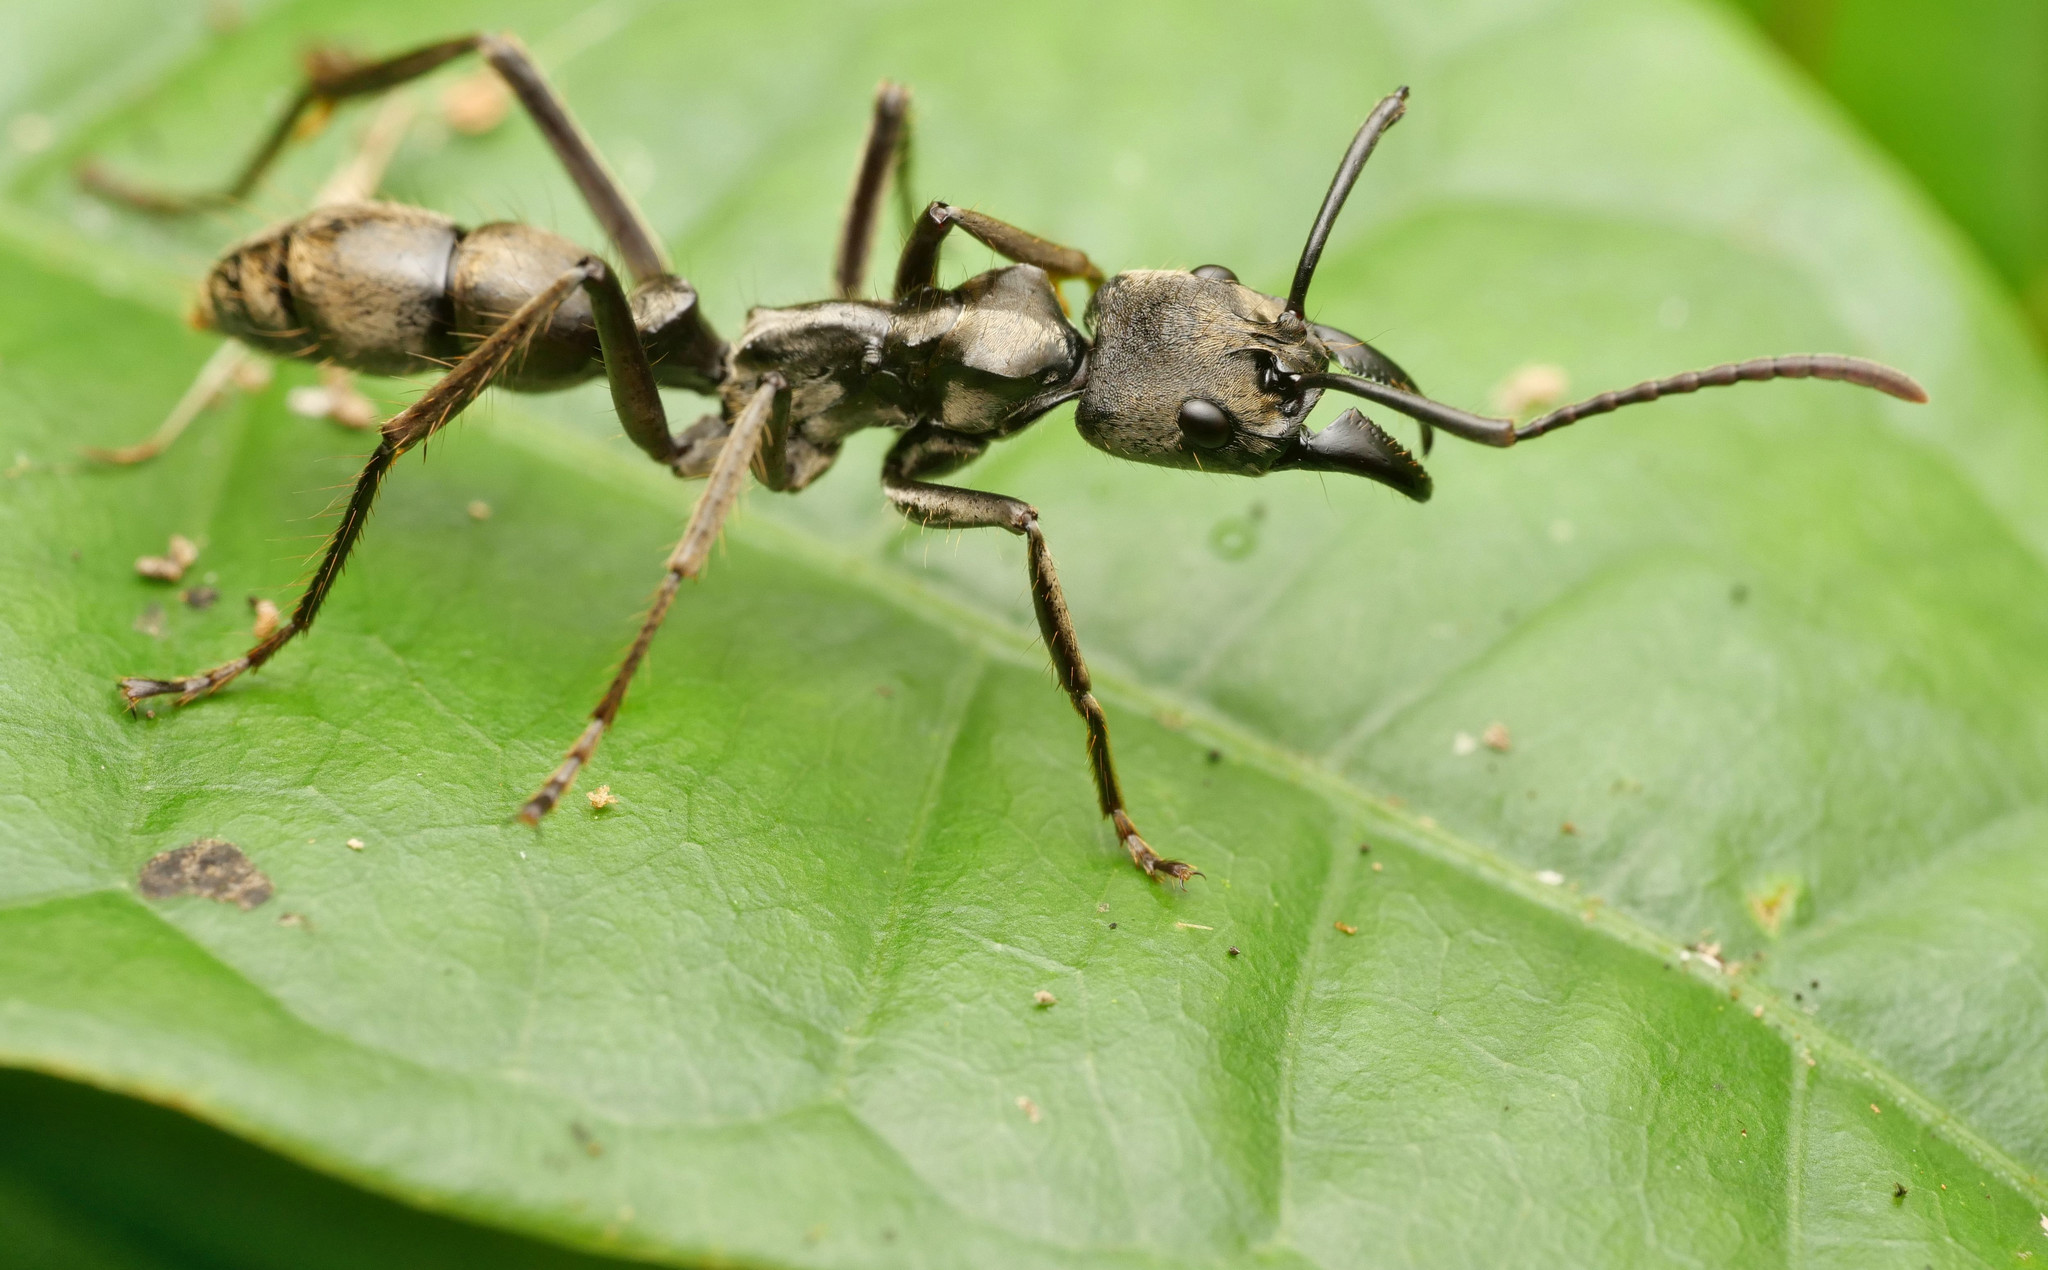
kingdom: Animalia
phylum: Arthropoda
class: Insecta
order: Hymenoptera
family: Formicidae
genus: Neoponera
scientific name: Neoponera curvinodis
